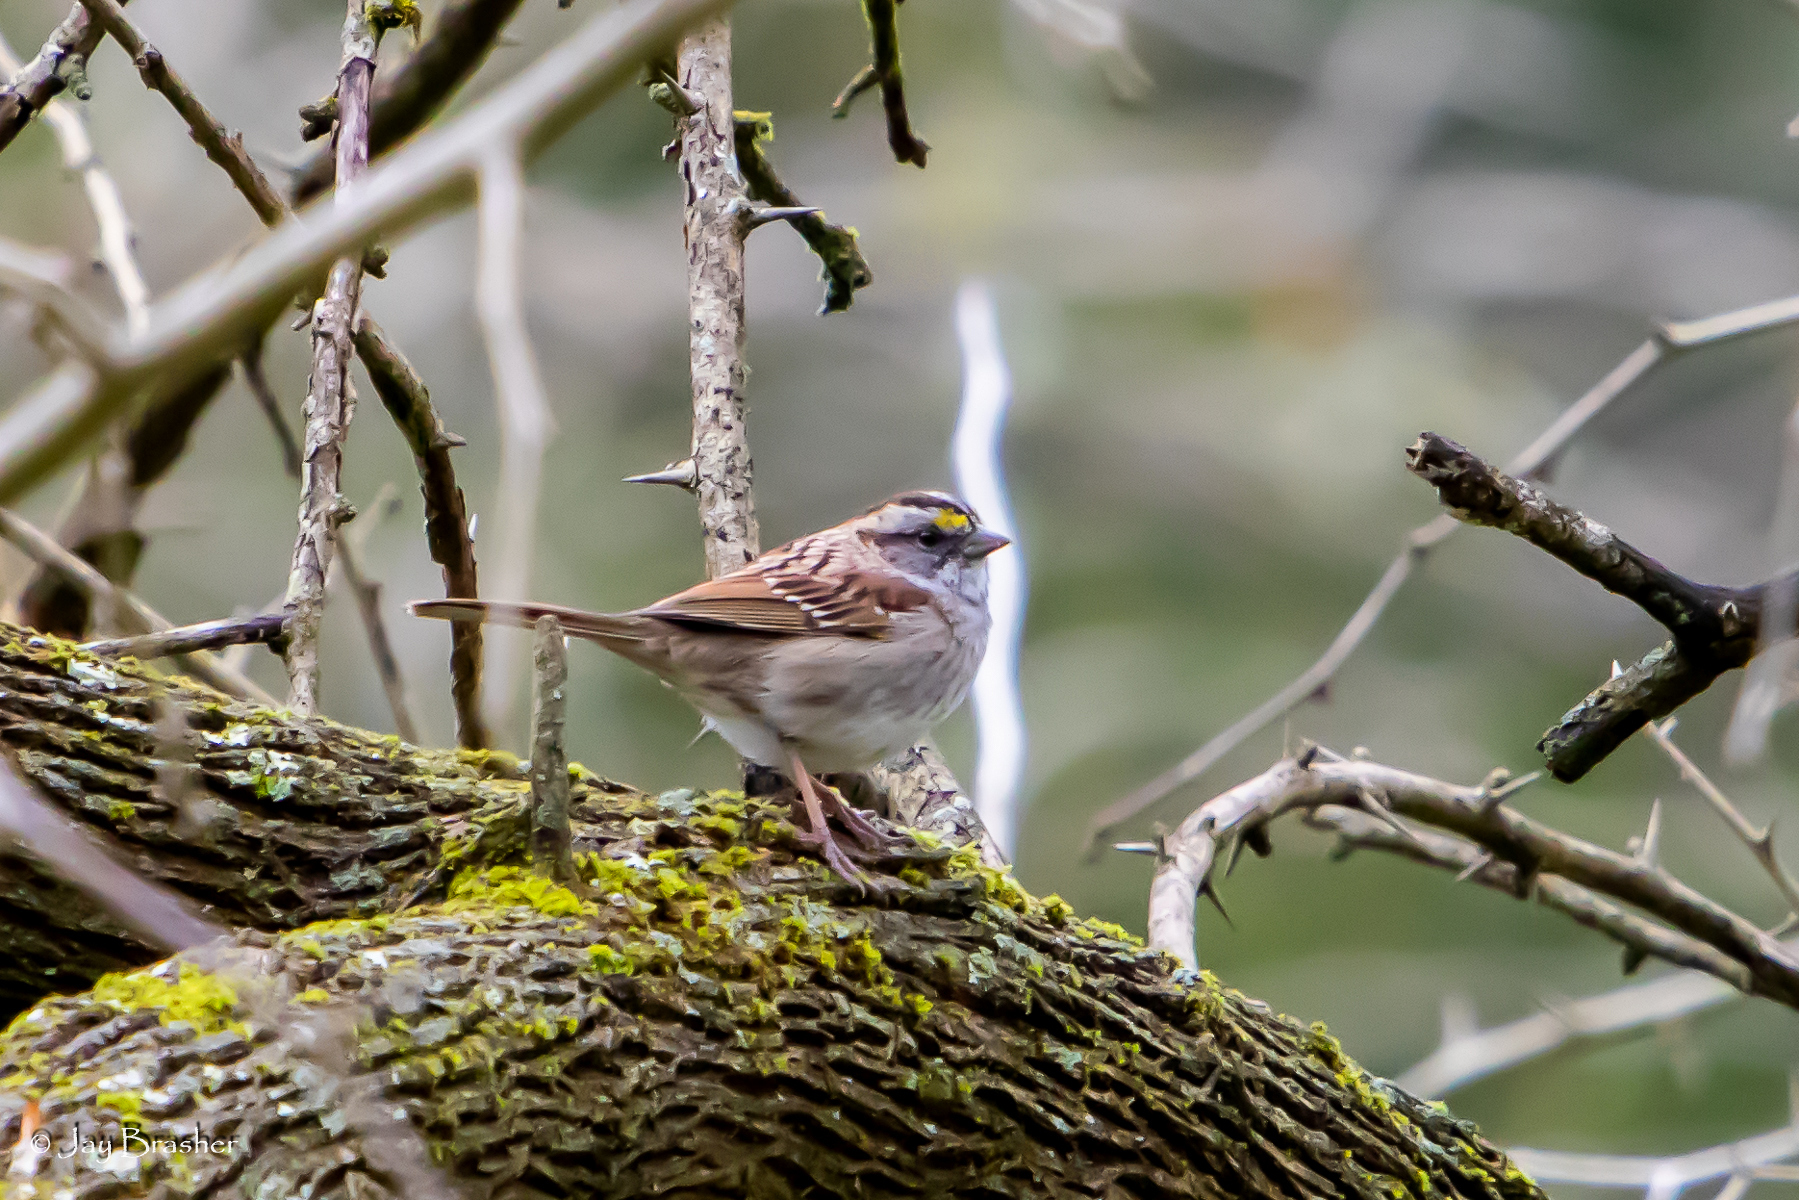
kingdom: Animalia
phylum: Chordata
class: Aves
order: Passeriformes
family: Passerellidae
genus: Zonotrichia
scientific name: Zonotrichia albicollis
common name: White-throated sparrow
